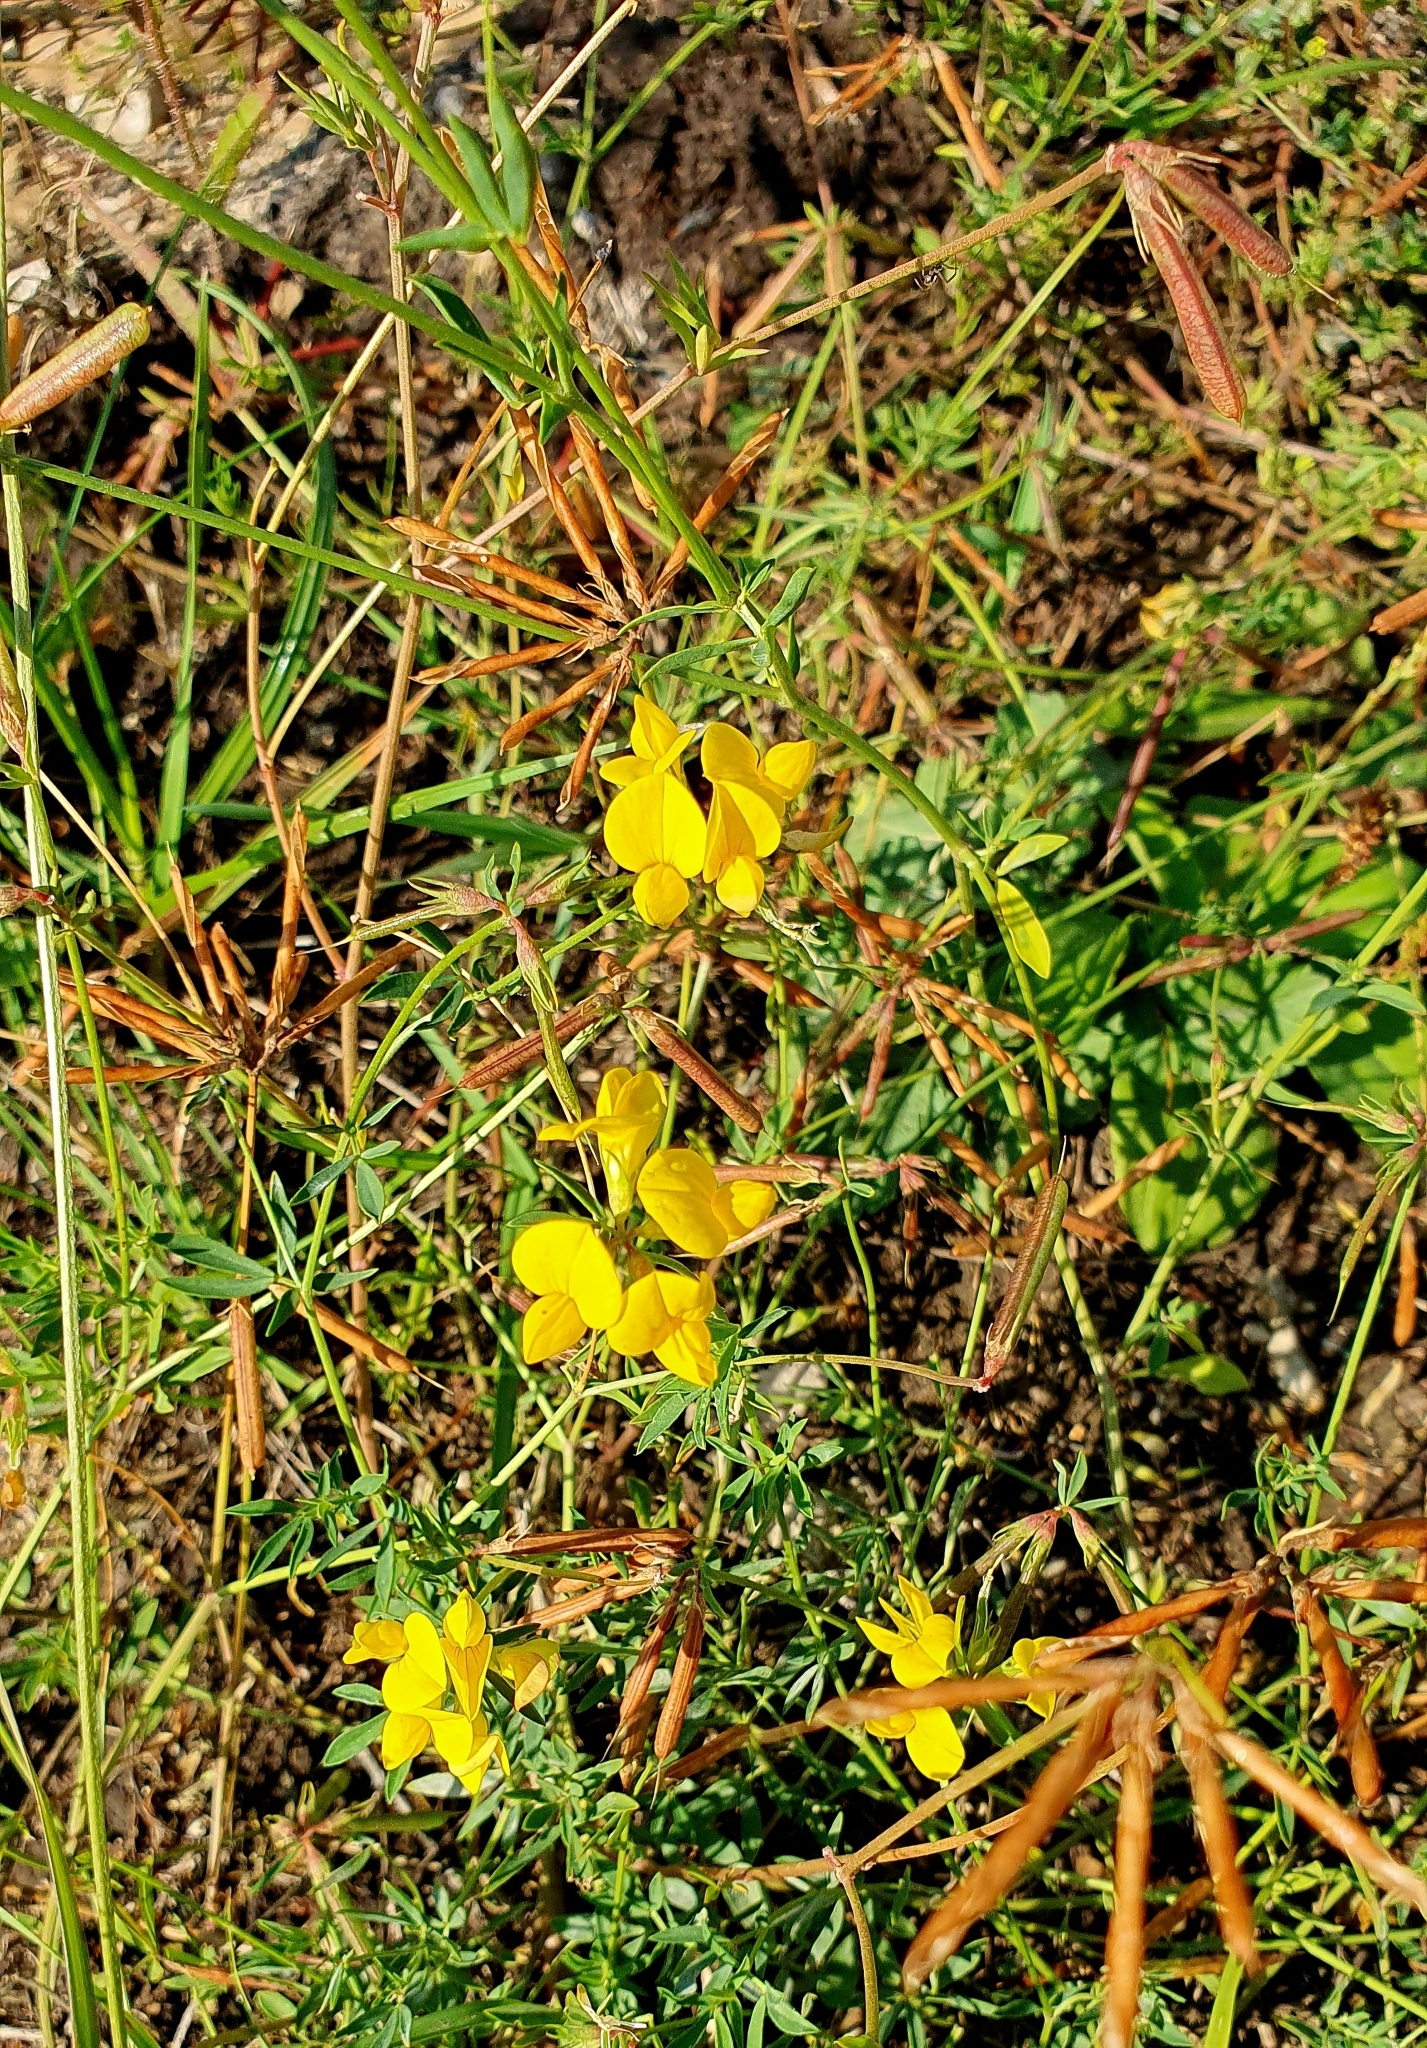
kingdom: Plantae
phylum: Tracheophyta
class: Magnoliopsida
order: Fabales
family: Fabaceae
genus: Lotus
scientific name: Lotus corniculatus
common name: Common bird's-foot-trefoil
